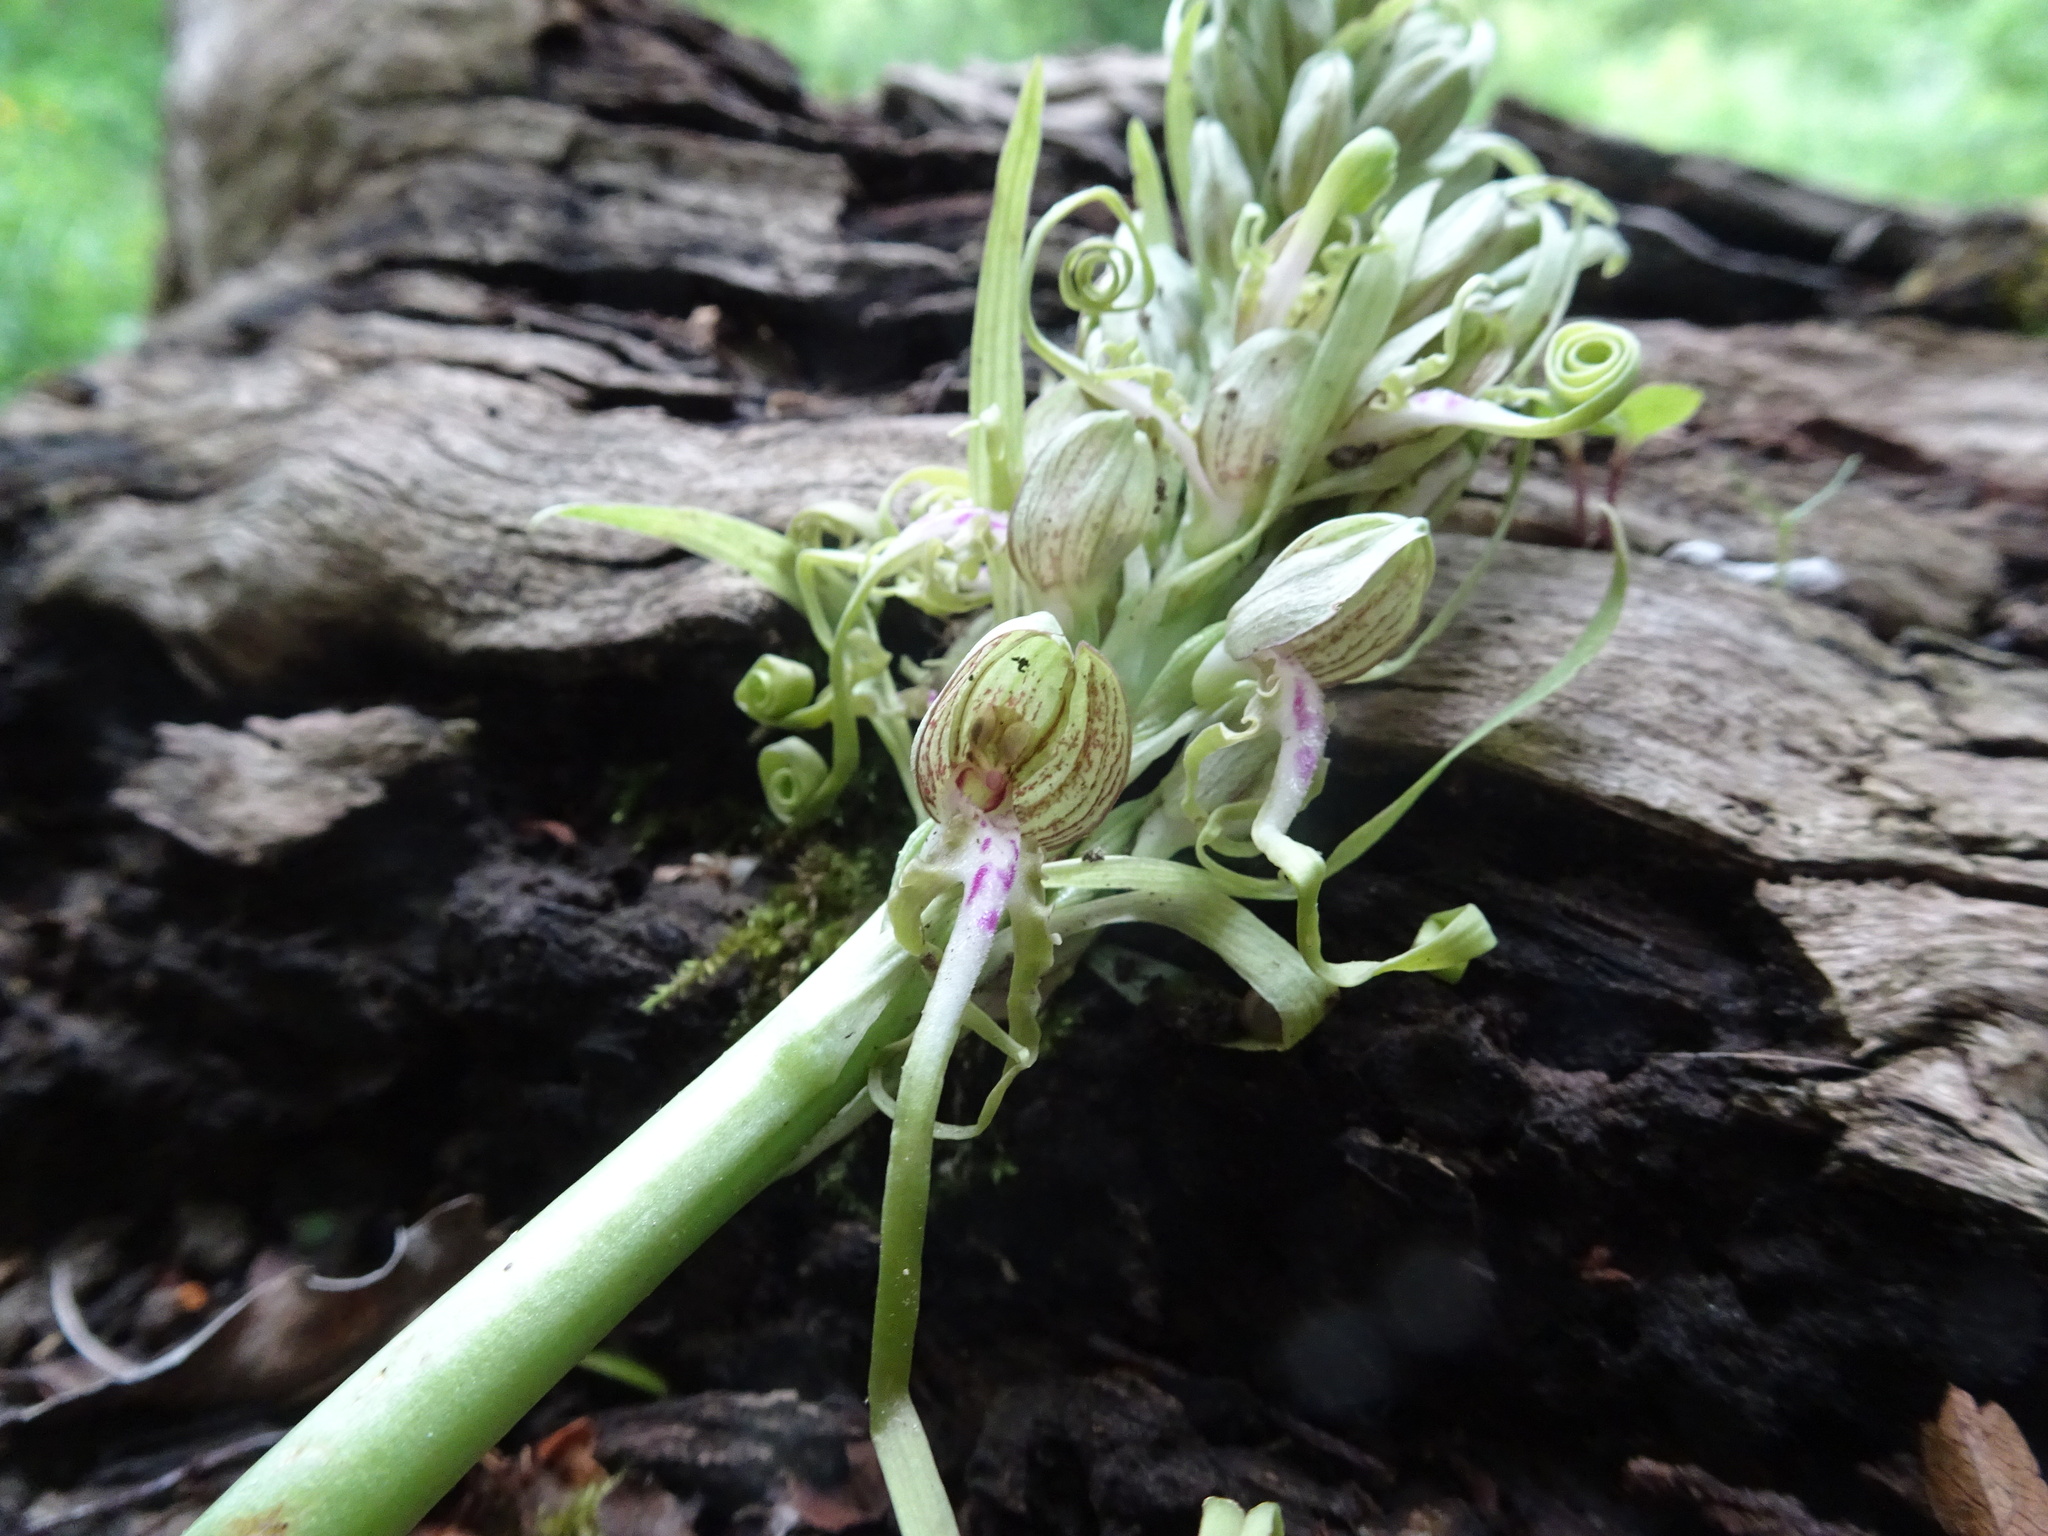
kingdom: Plantae
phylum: Tracheophyta
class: Liliopsida
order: Asparagales
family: Orchidaceae
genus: Himantoglossum
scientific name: Himantoglossum hircinum
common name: Lizard orchid
